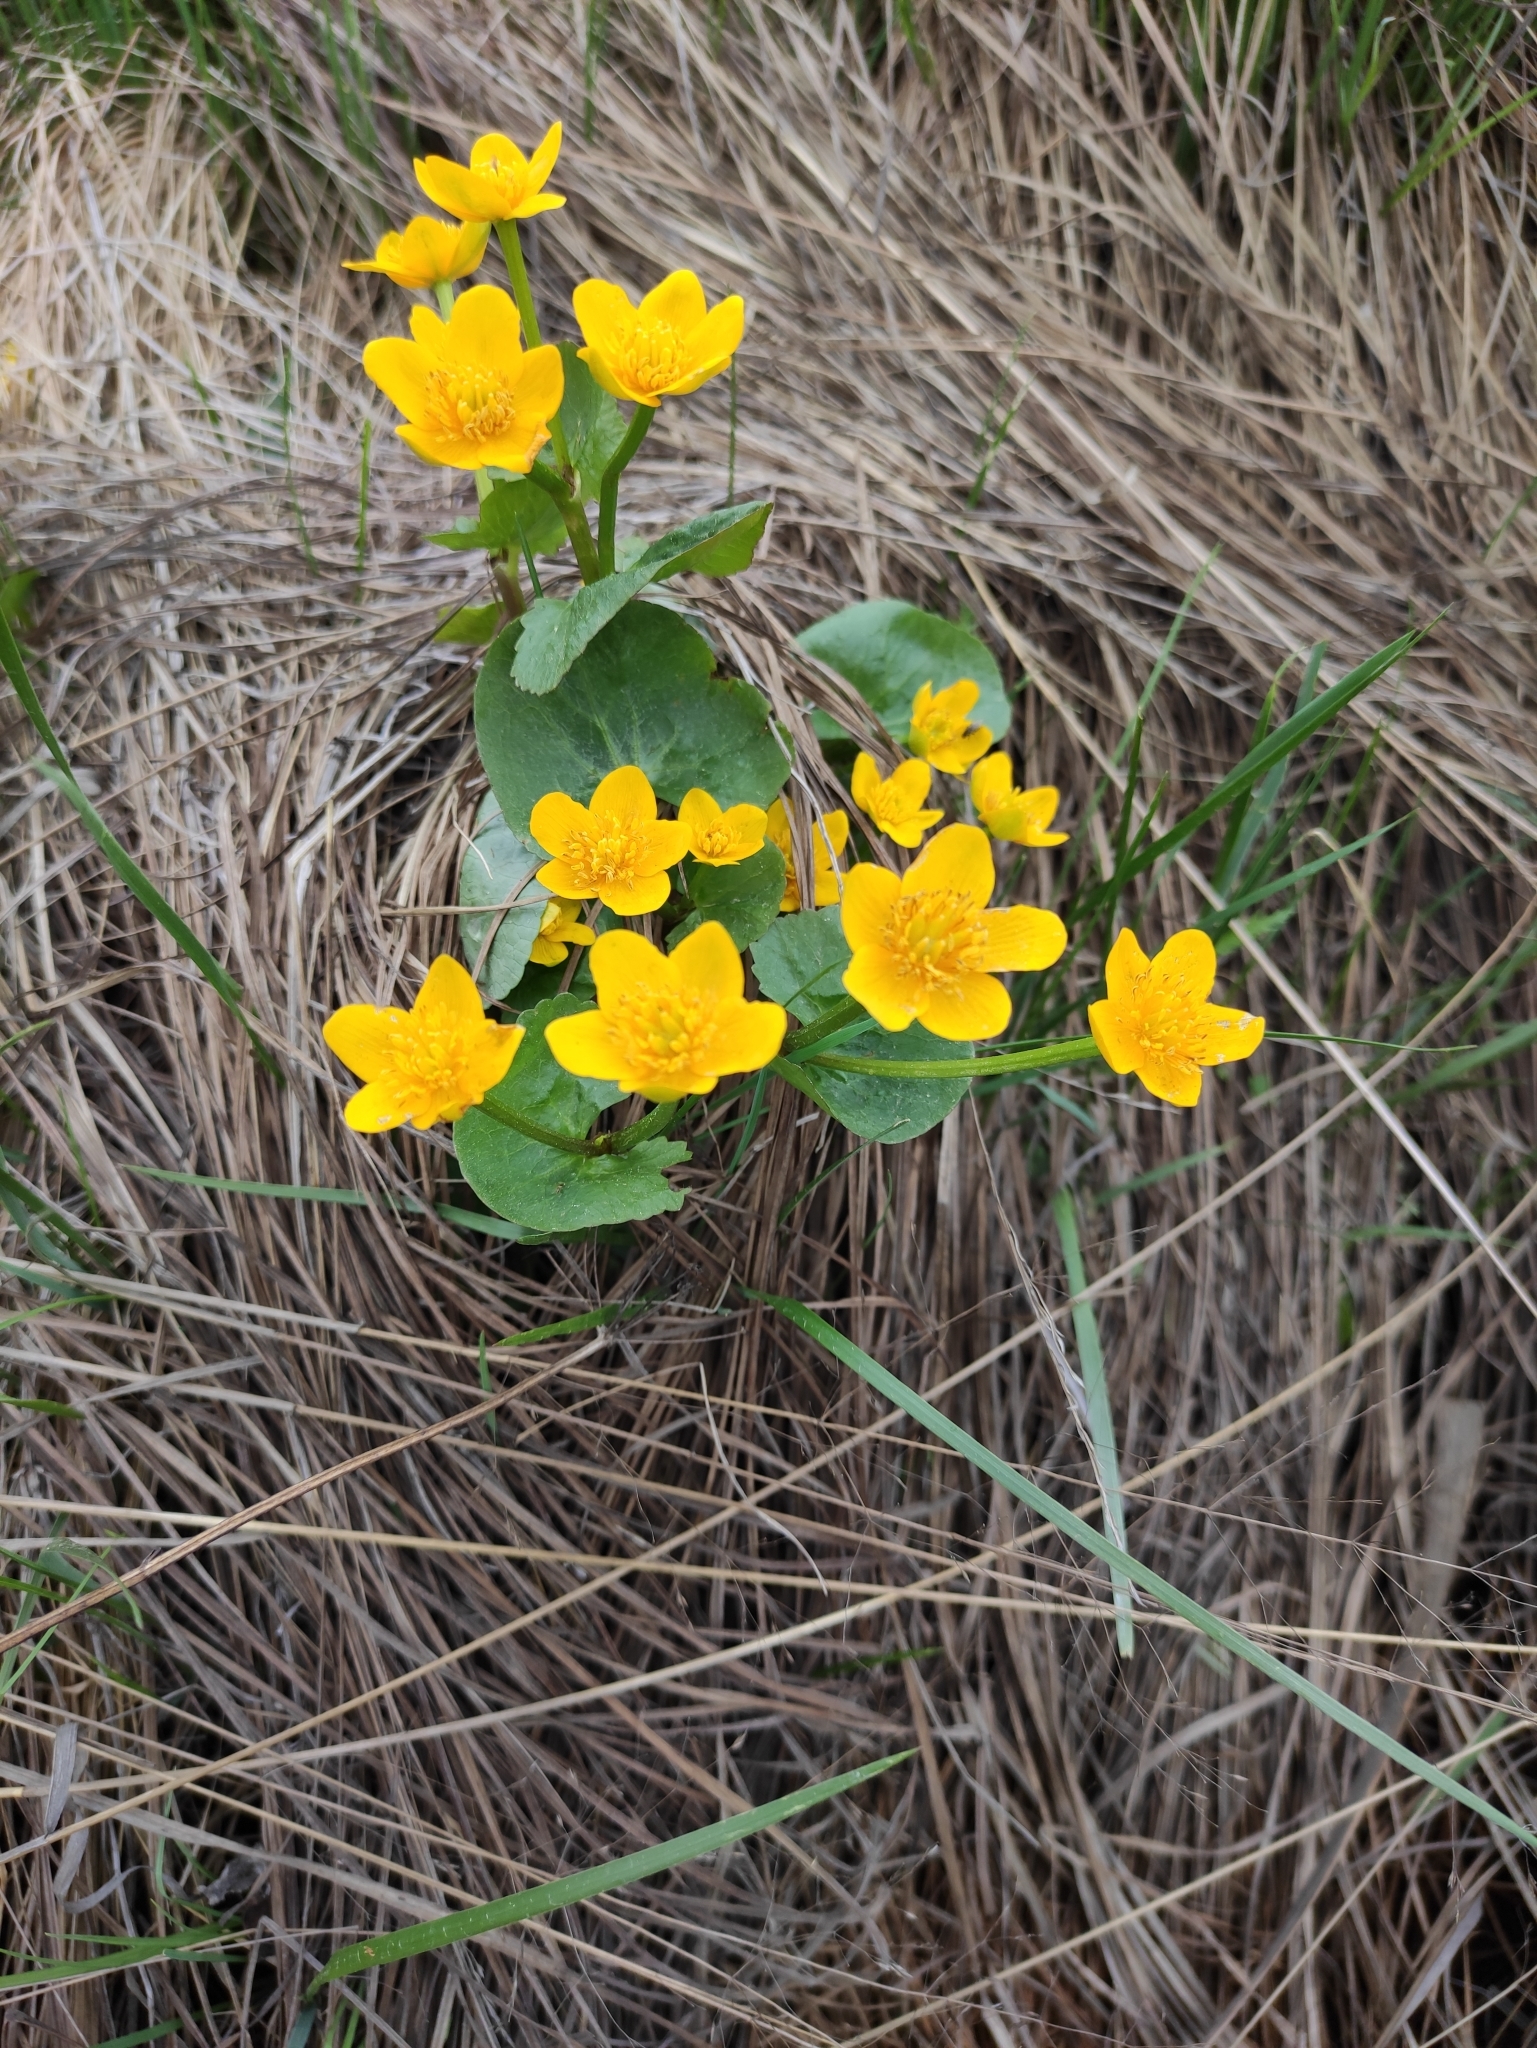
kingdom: Plantae
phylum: Tracheophyta
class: Magnoliopsida
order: Ranunculales
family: Ranunculaceae
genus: Caltha
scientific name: Caltha palustris
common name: Marsh marigold
